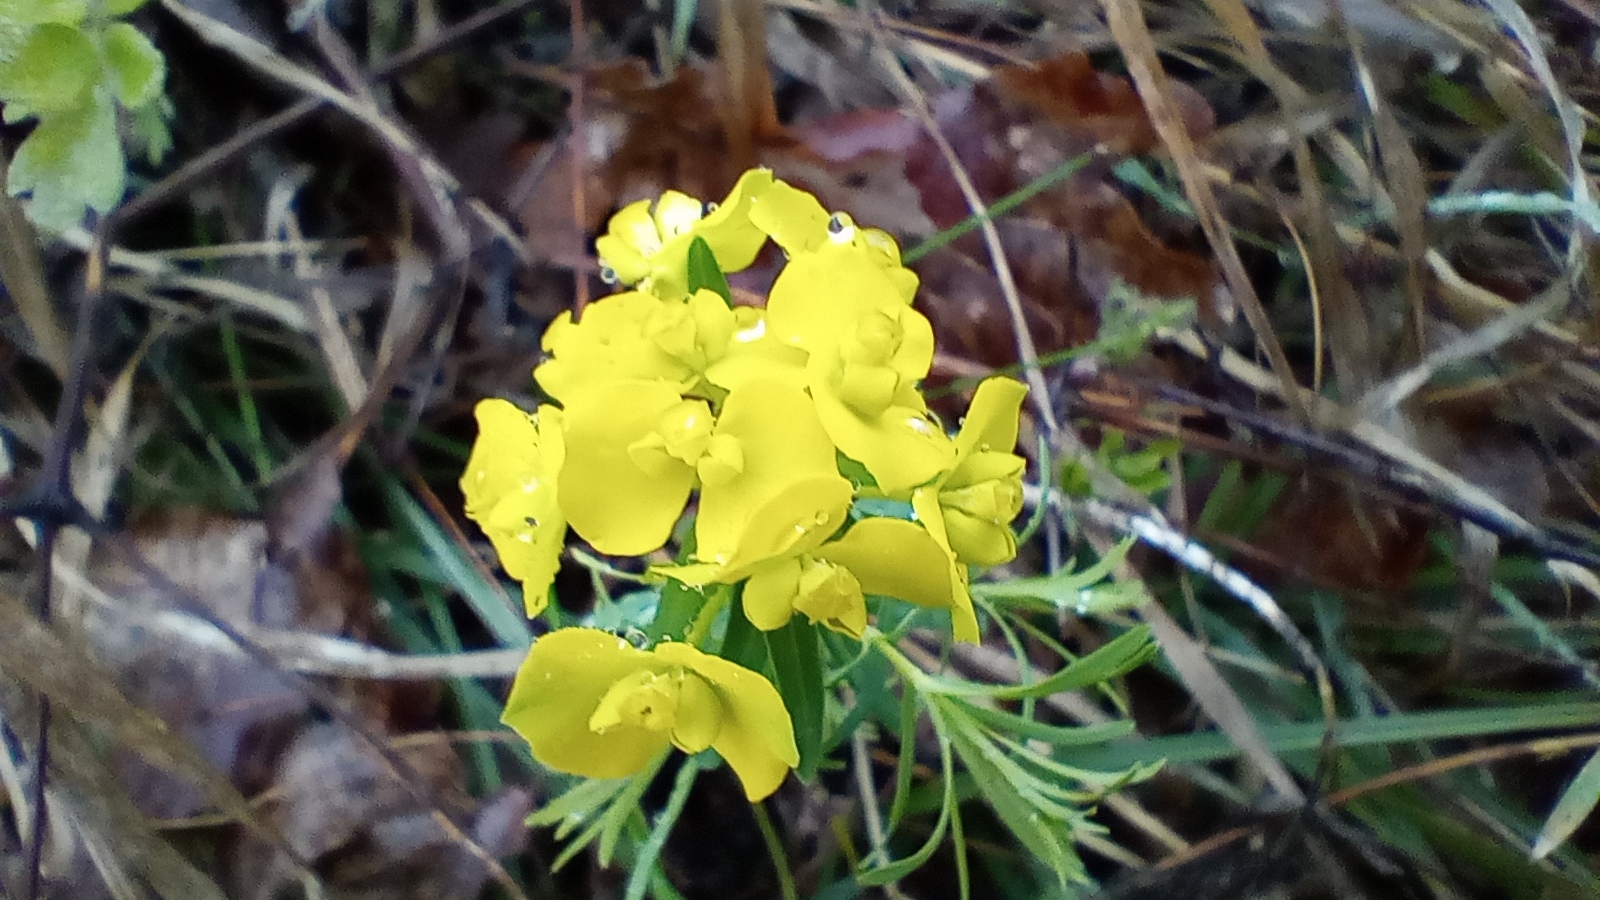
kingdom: Plantae
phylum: Tracheophyta
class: Magnoliopsida
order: Malpighiales
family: Euphorbiaceae
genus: Euphorbia
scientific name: Euphorbia cyparissias
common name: Cypress spurge
